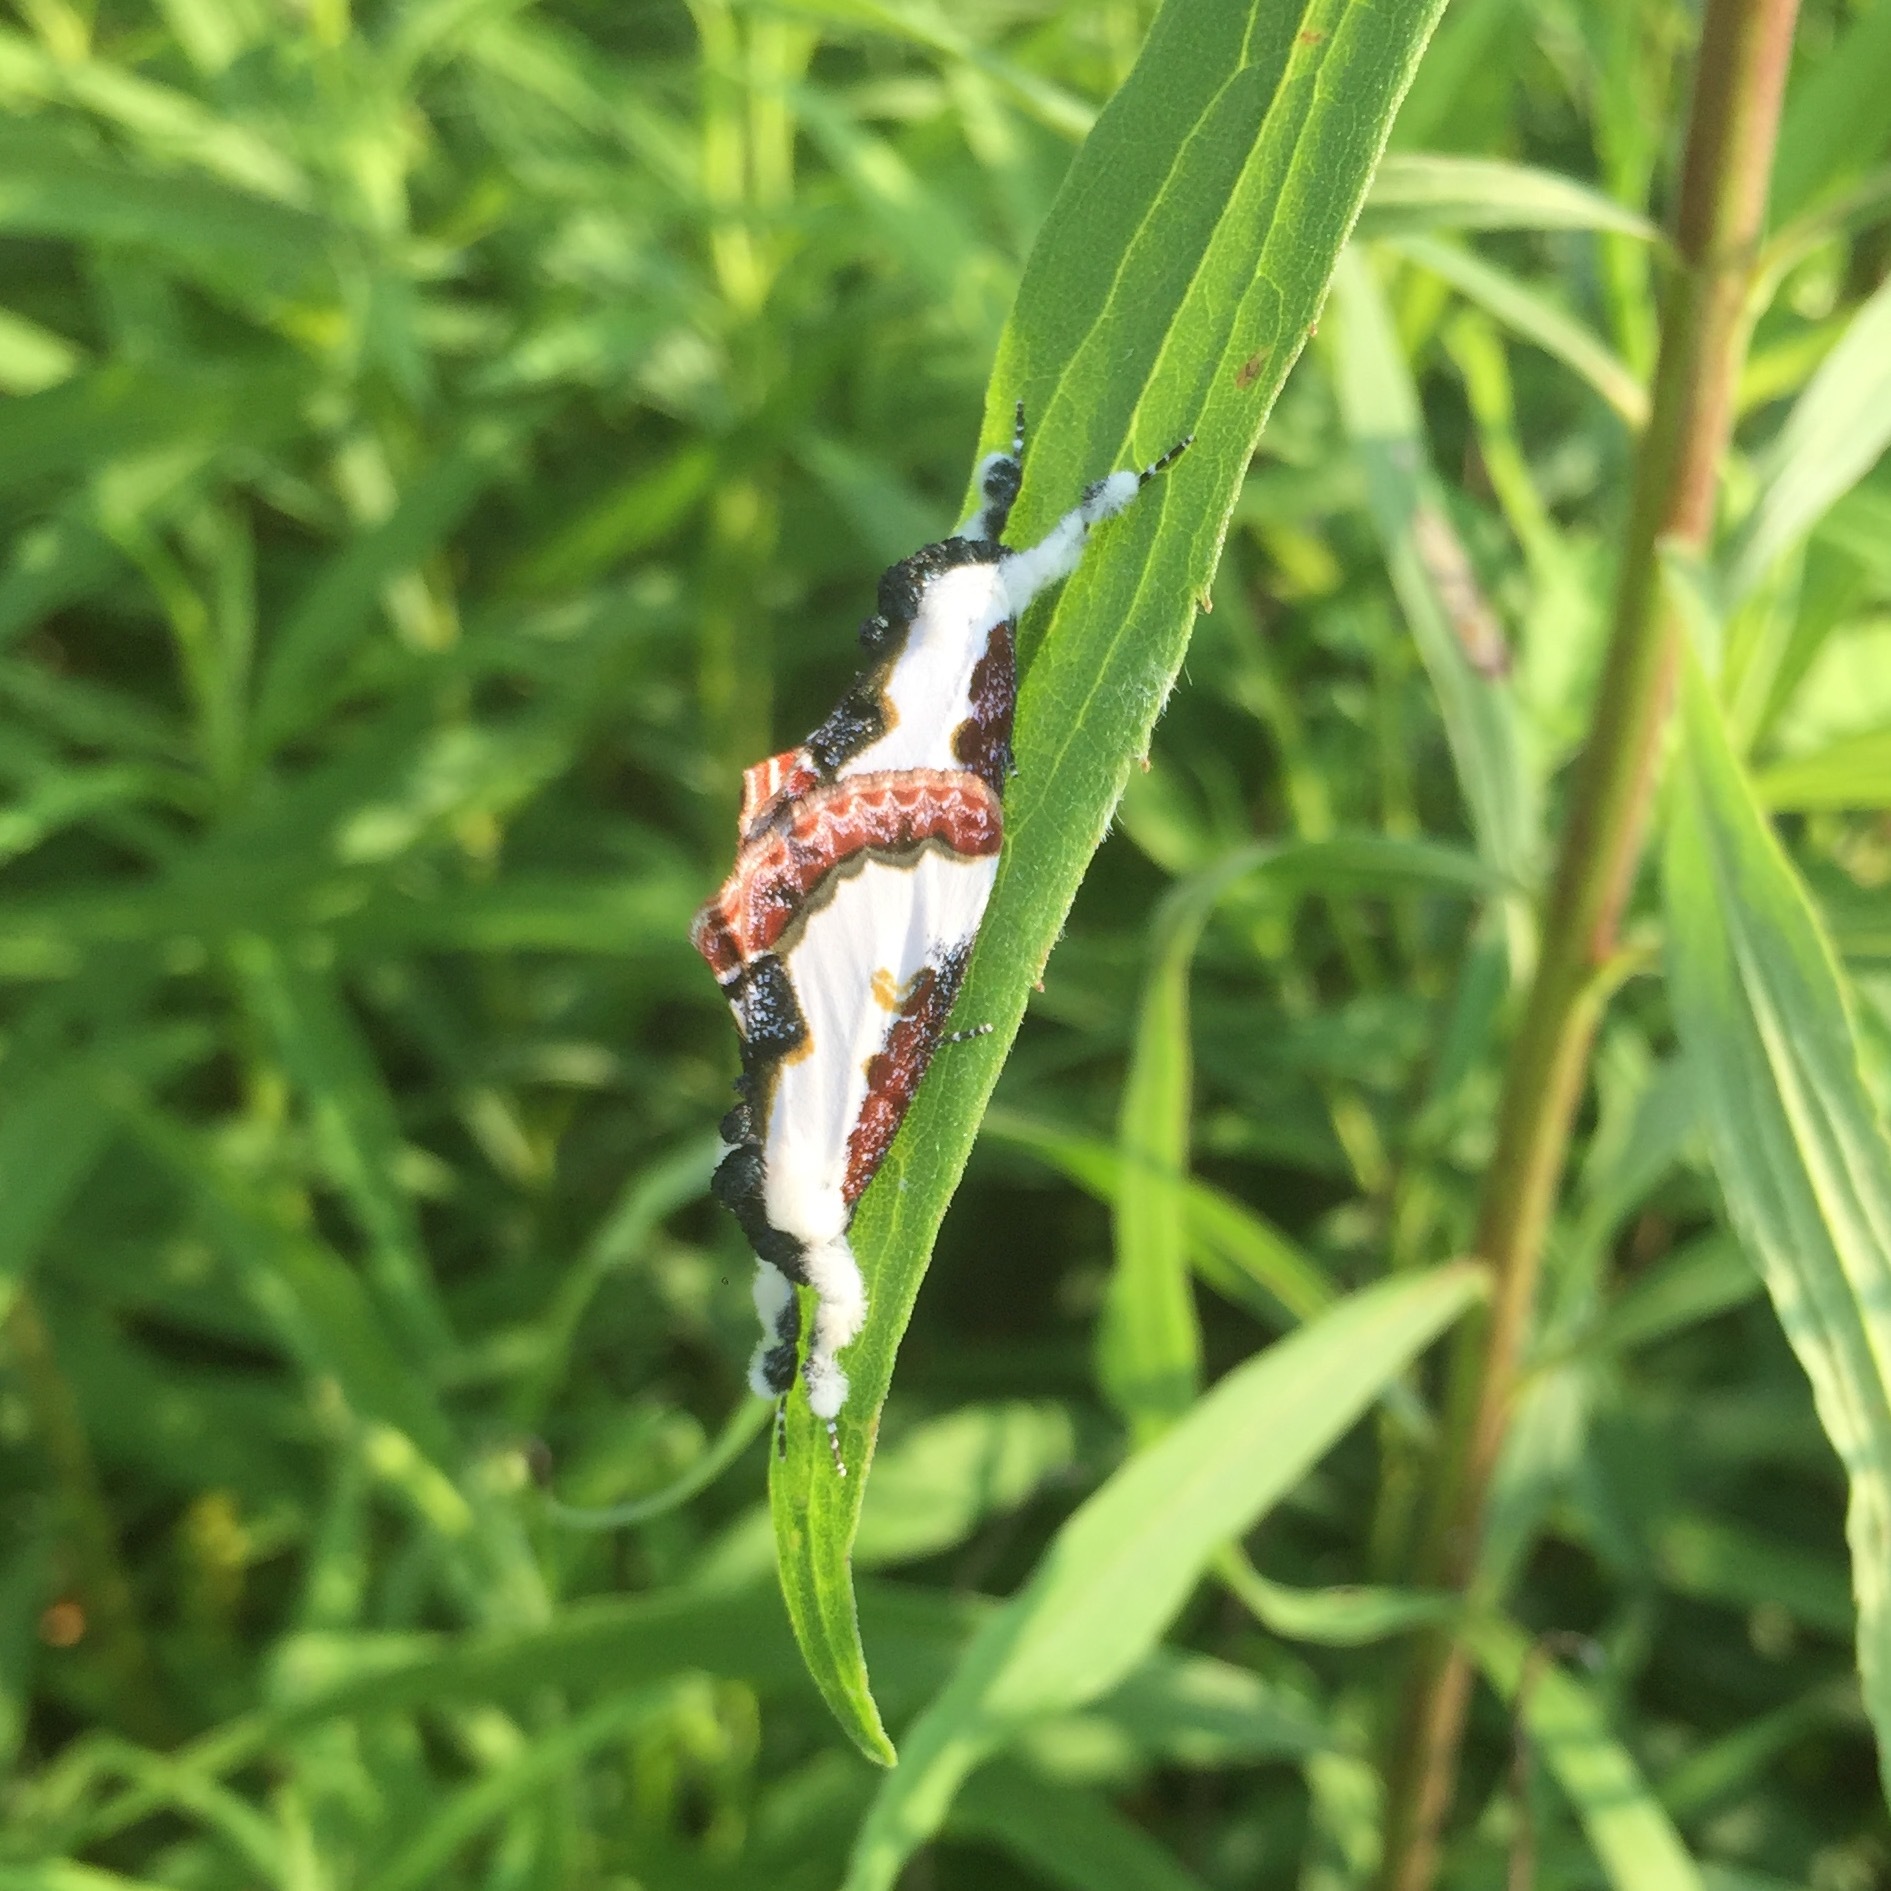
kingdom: Animalia
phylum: Arthropoda
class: Insecta
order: Lepidoptera
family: Noctuidae
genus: Eudryas
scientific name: Eudryas unio
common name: Pearly wood-nymph
